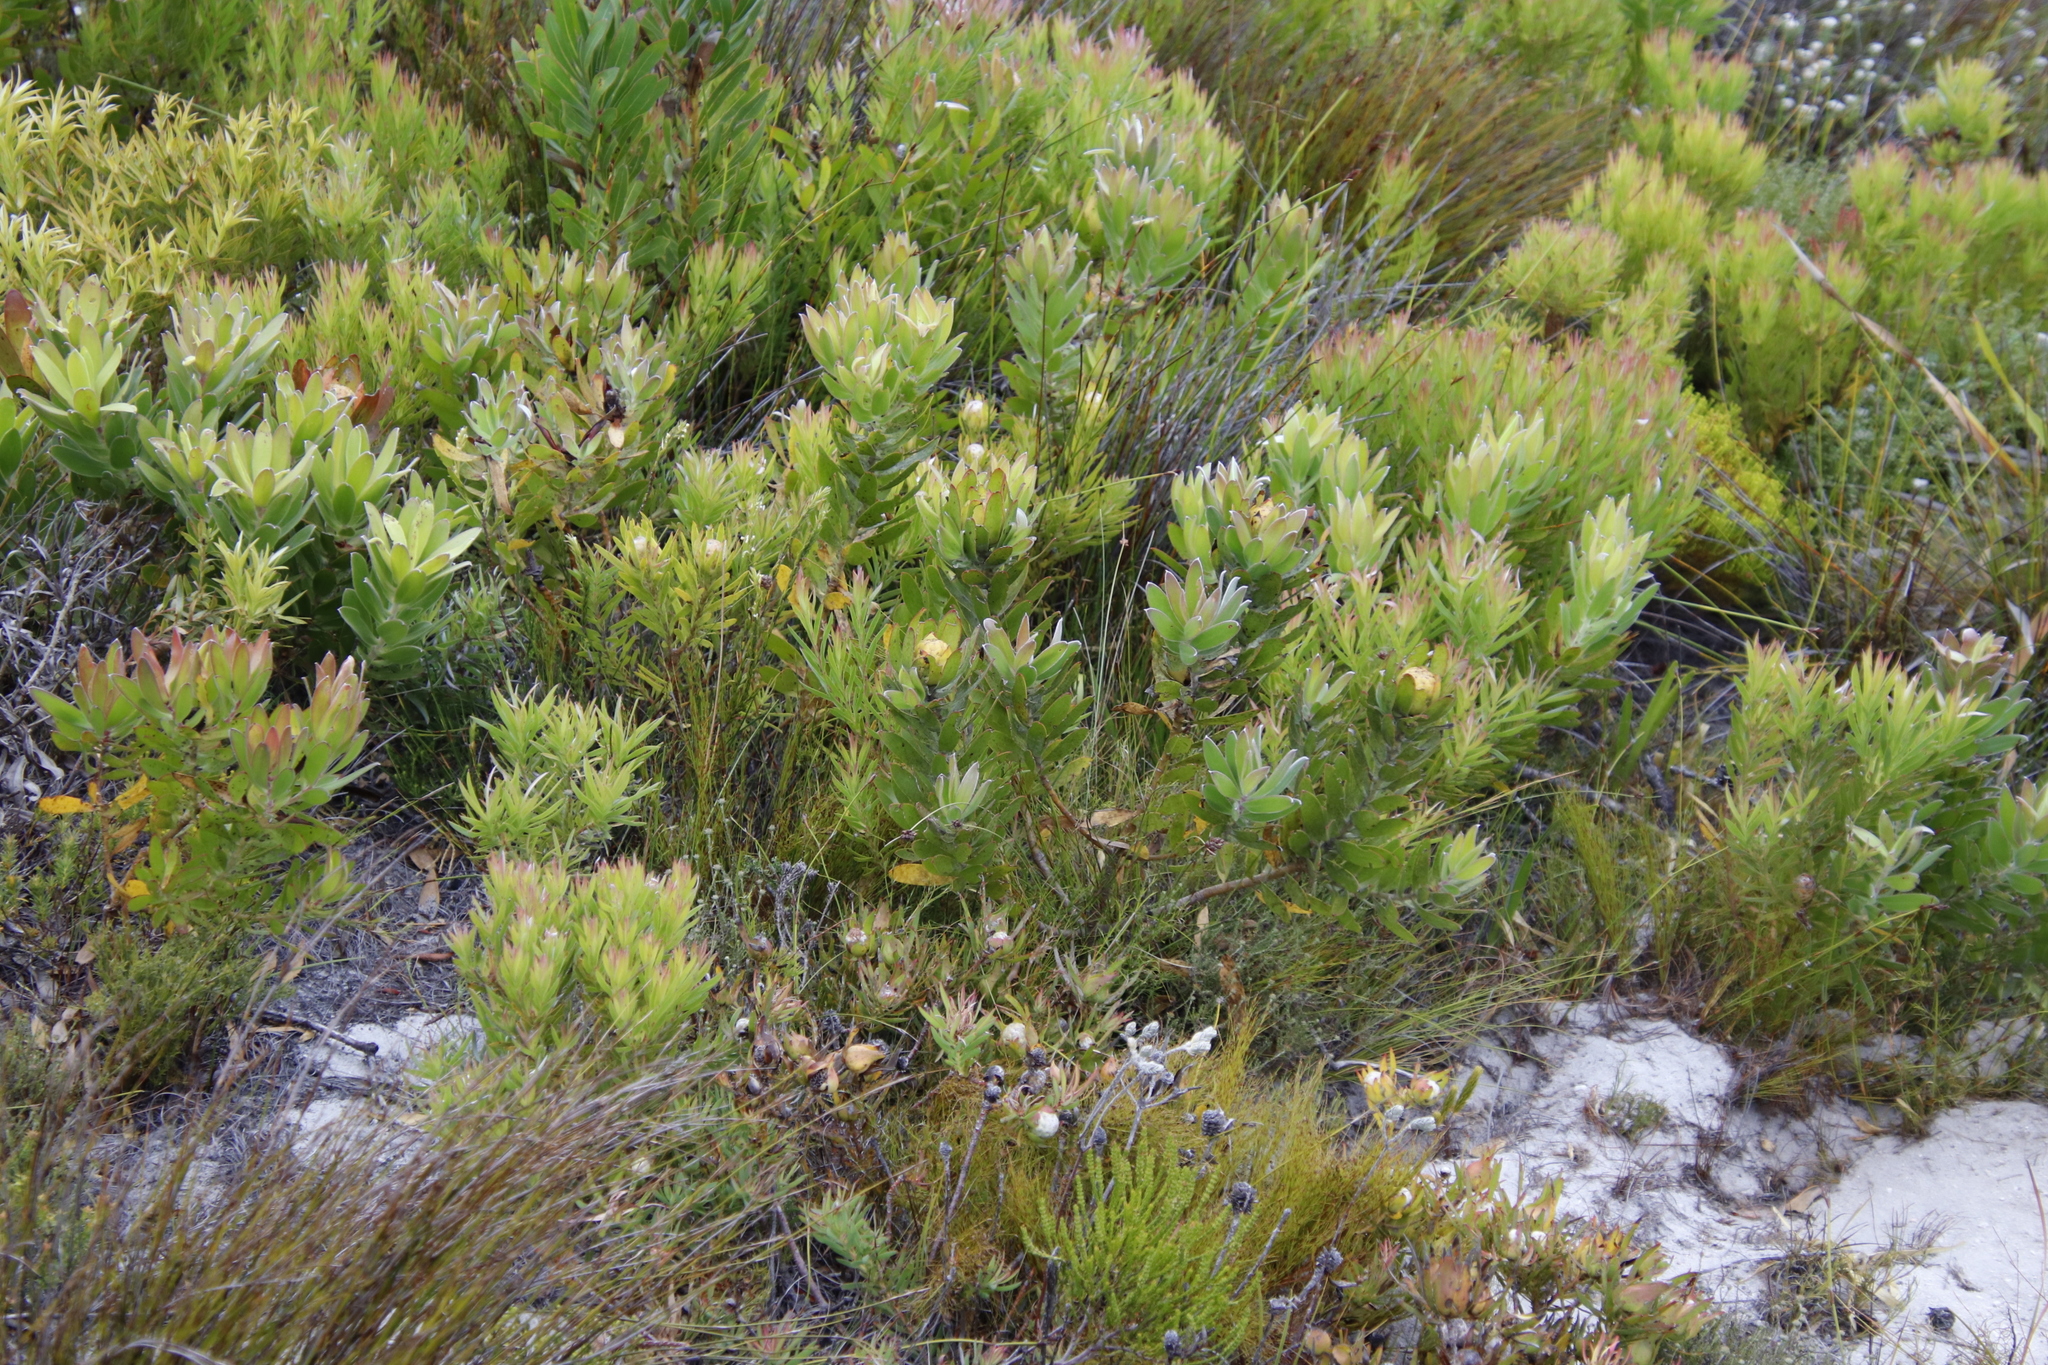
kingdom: Plantae
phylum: Tracheophyta
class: Magnoliopsida
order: Proteales
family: Proteaceae
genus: Leucadendron
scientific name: Leucadendron laureolum
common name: Golden sunshinebush
